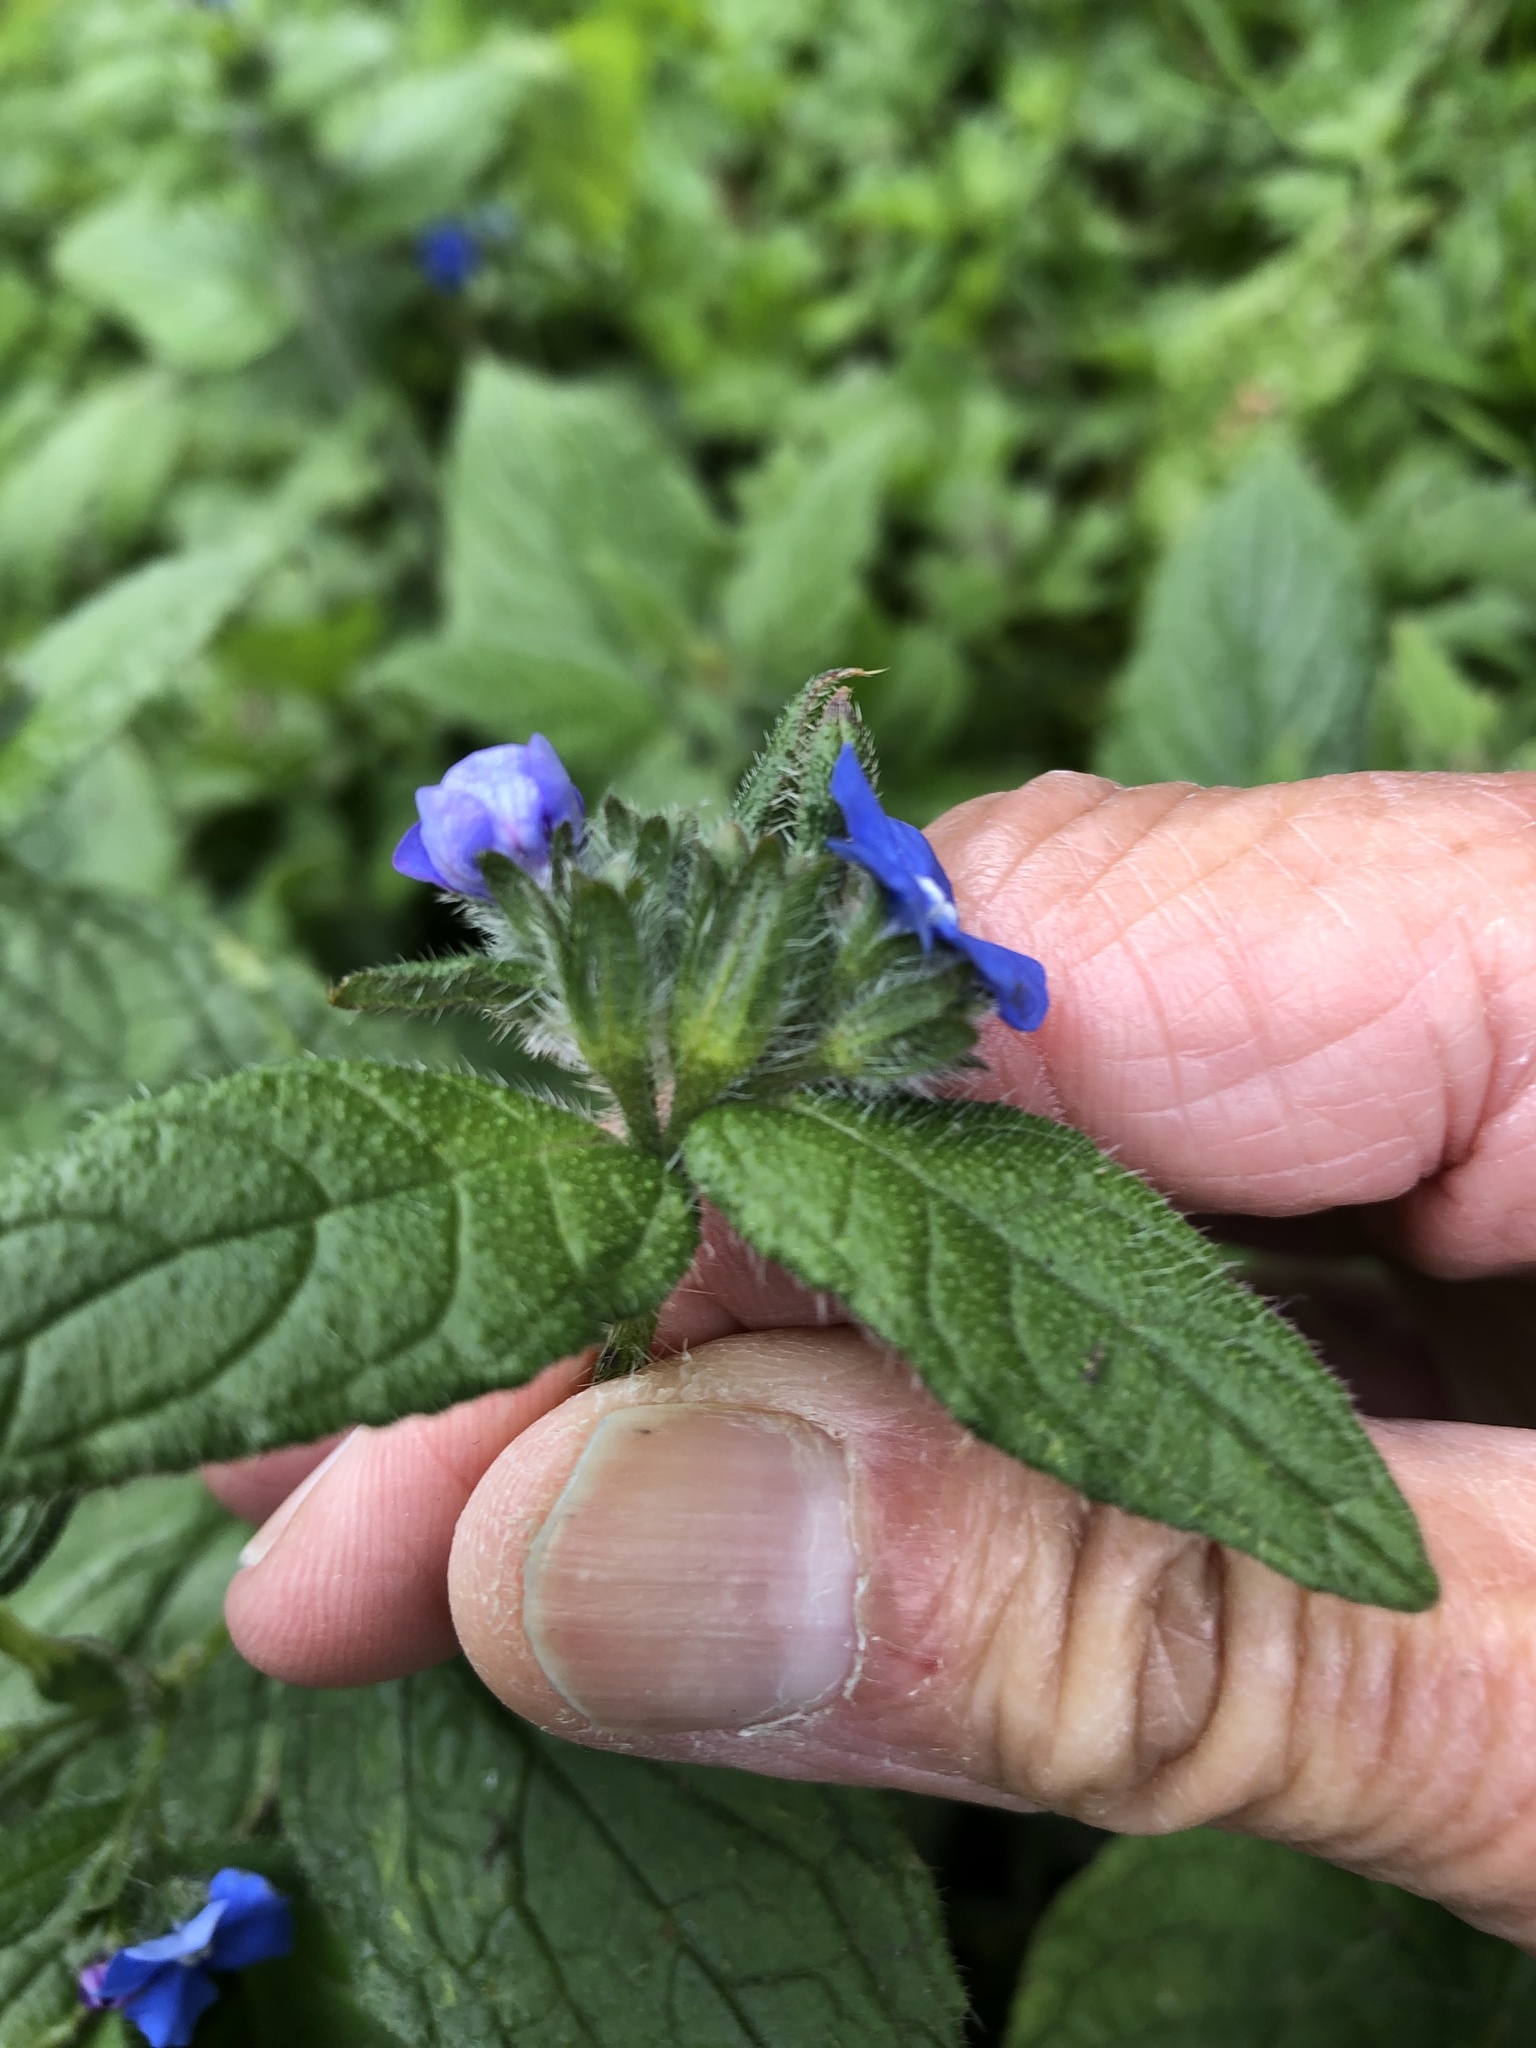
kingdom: Plantae
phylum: Tracheophyta
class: Magnoliopsida
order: Boraginales
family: Boraginaceae
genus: Pentaglottis
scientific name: Pentaglottis sempervirens
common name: Green alkanet
